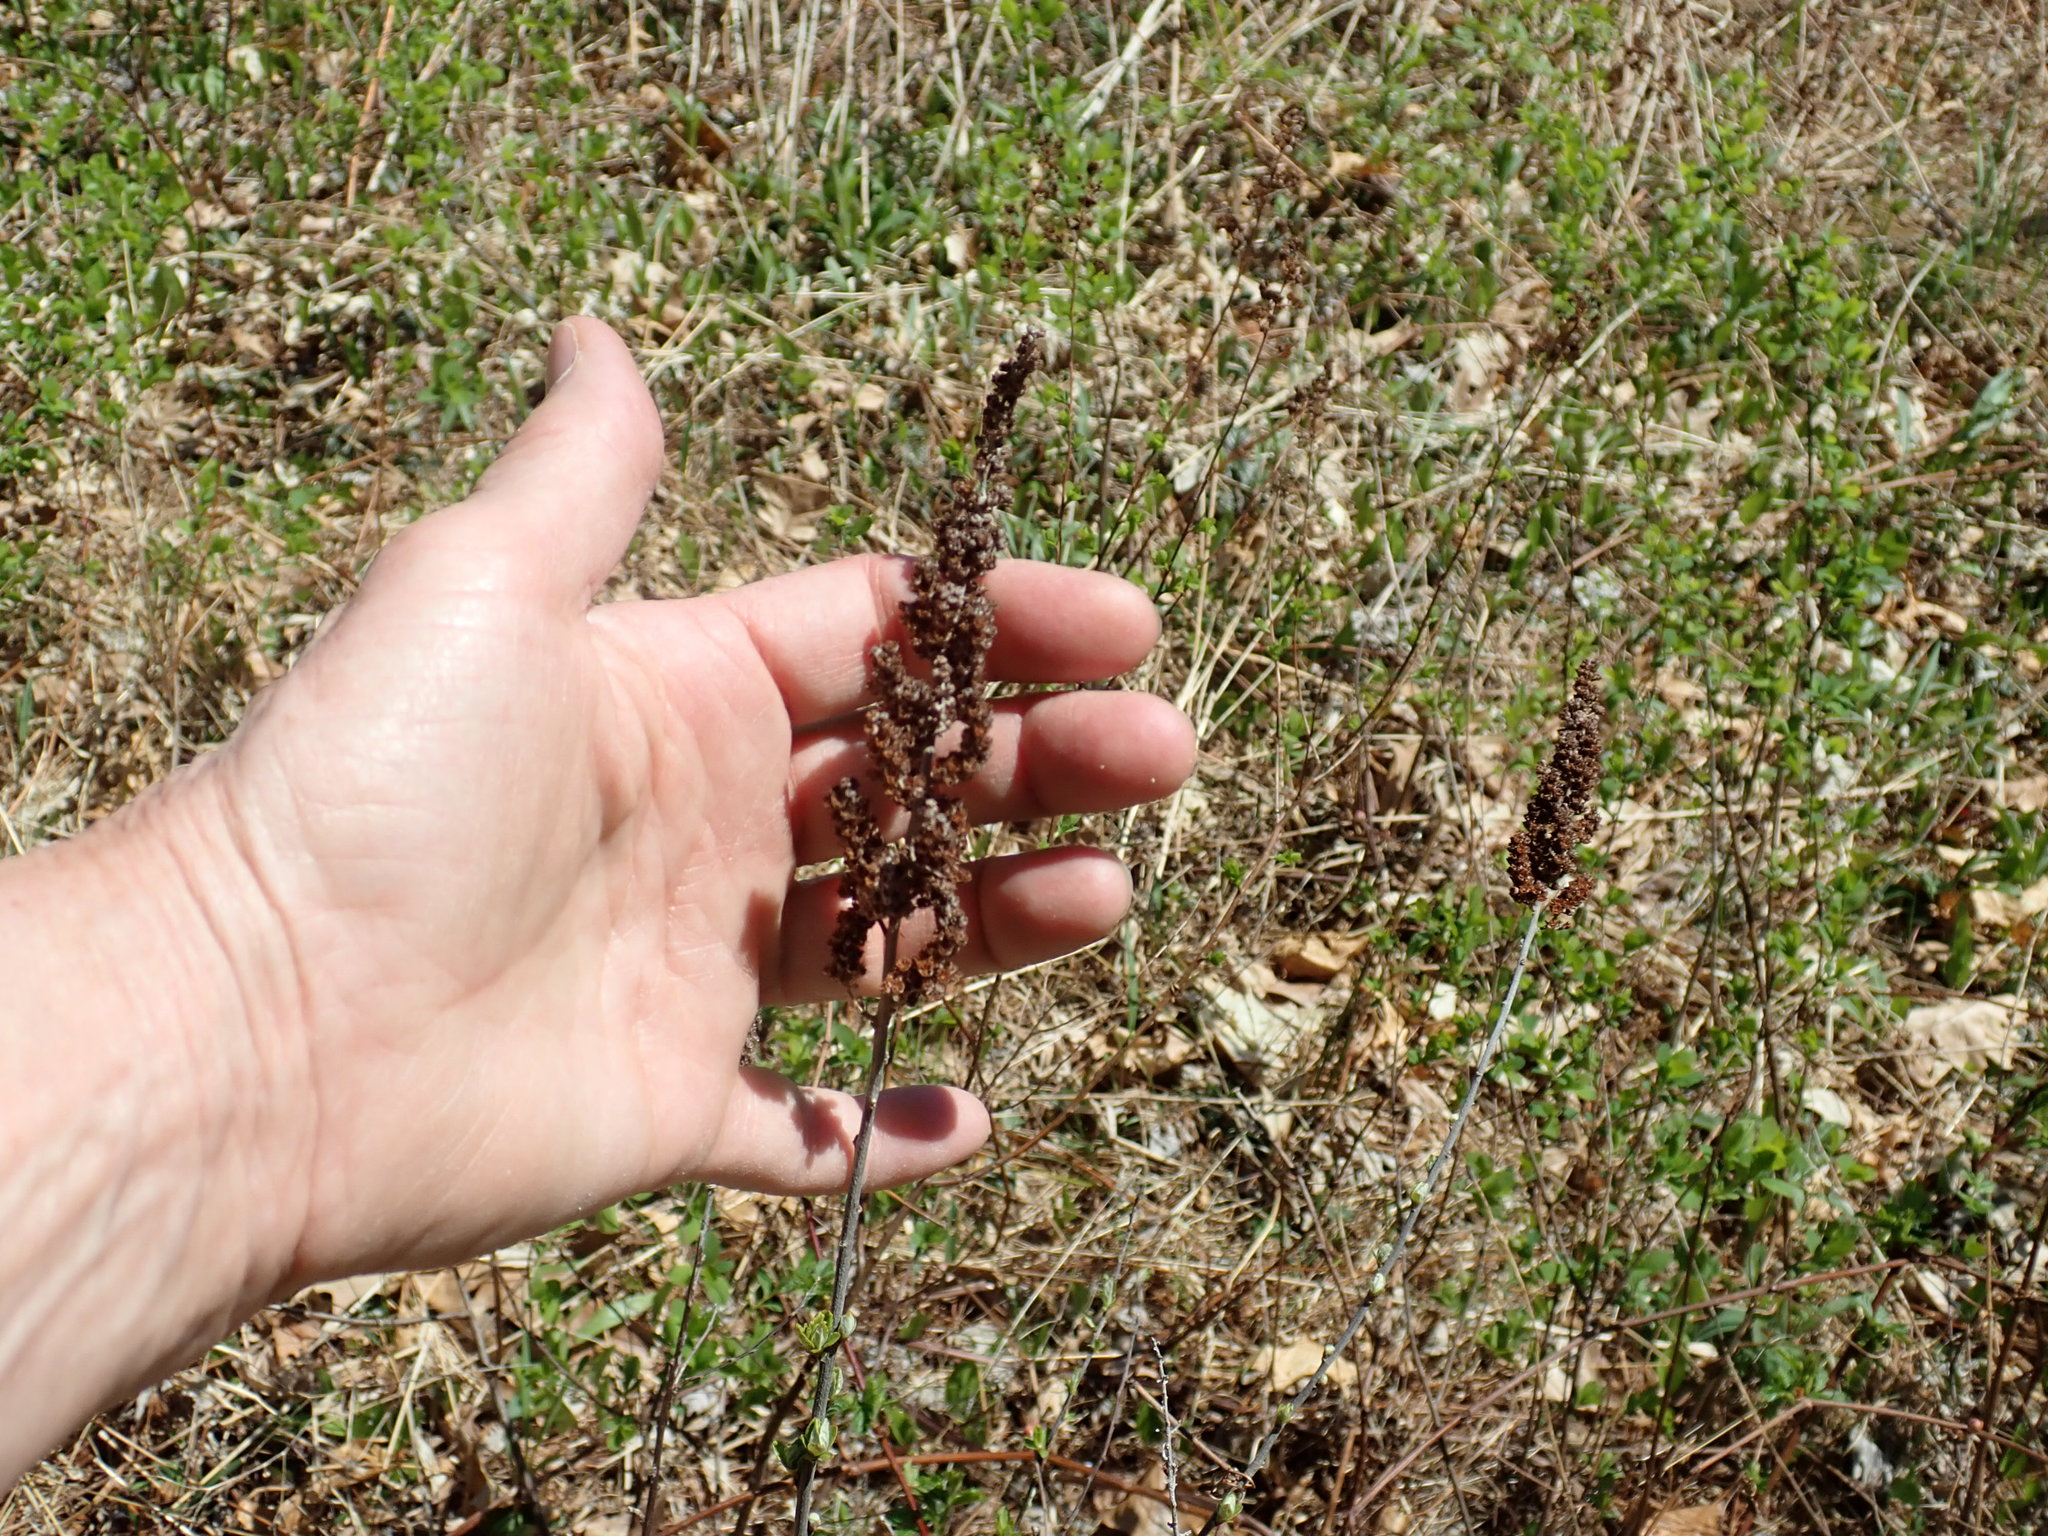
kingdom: Plantae
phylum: Tracheophyta
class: Magnoliopsida
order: Rosales
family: Rosaceae
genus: Spiraea
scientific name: Spiraea tomentosa
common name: Hardhack
